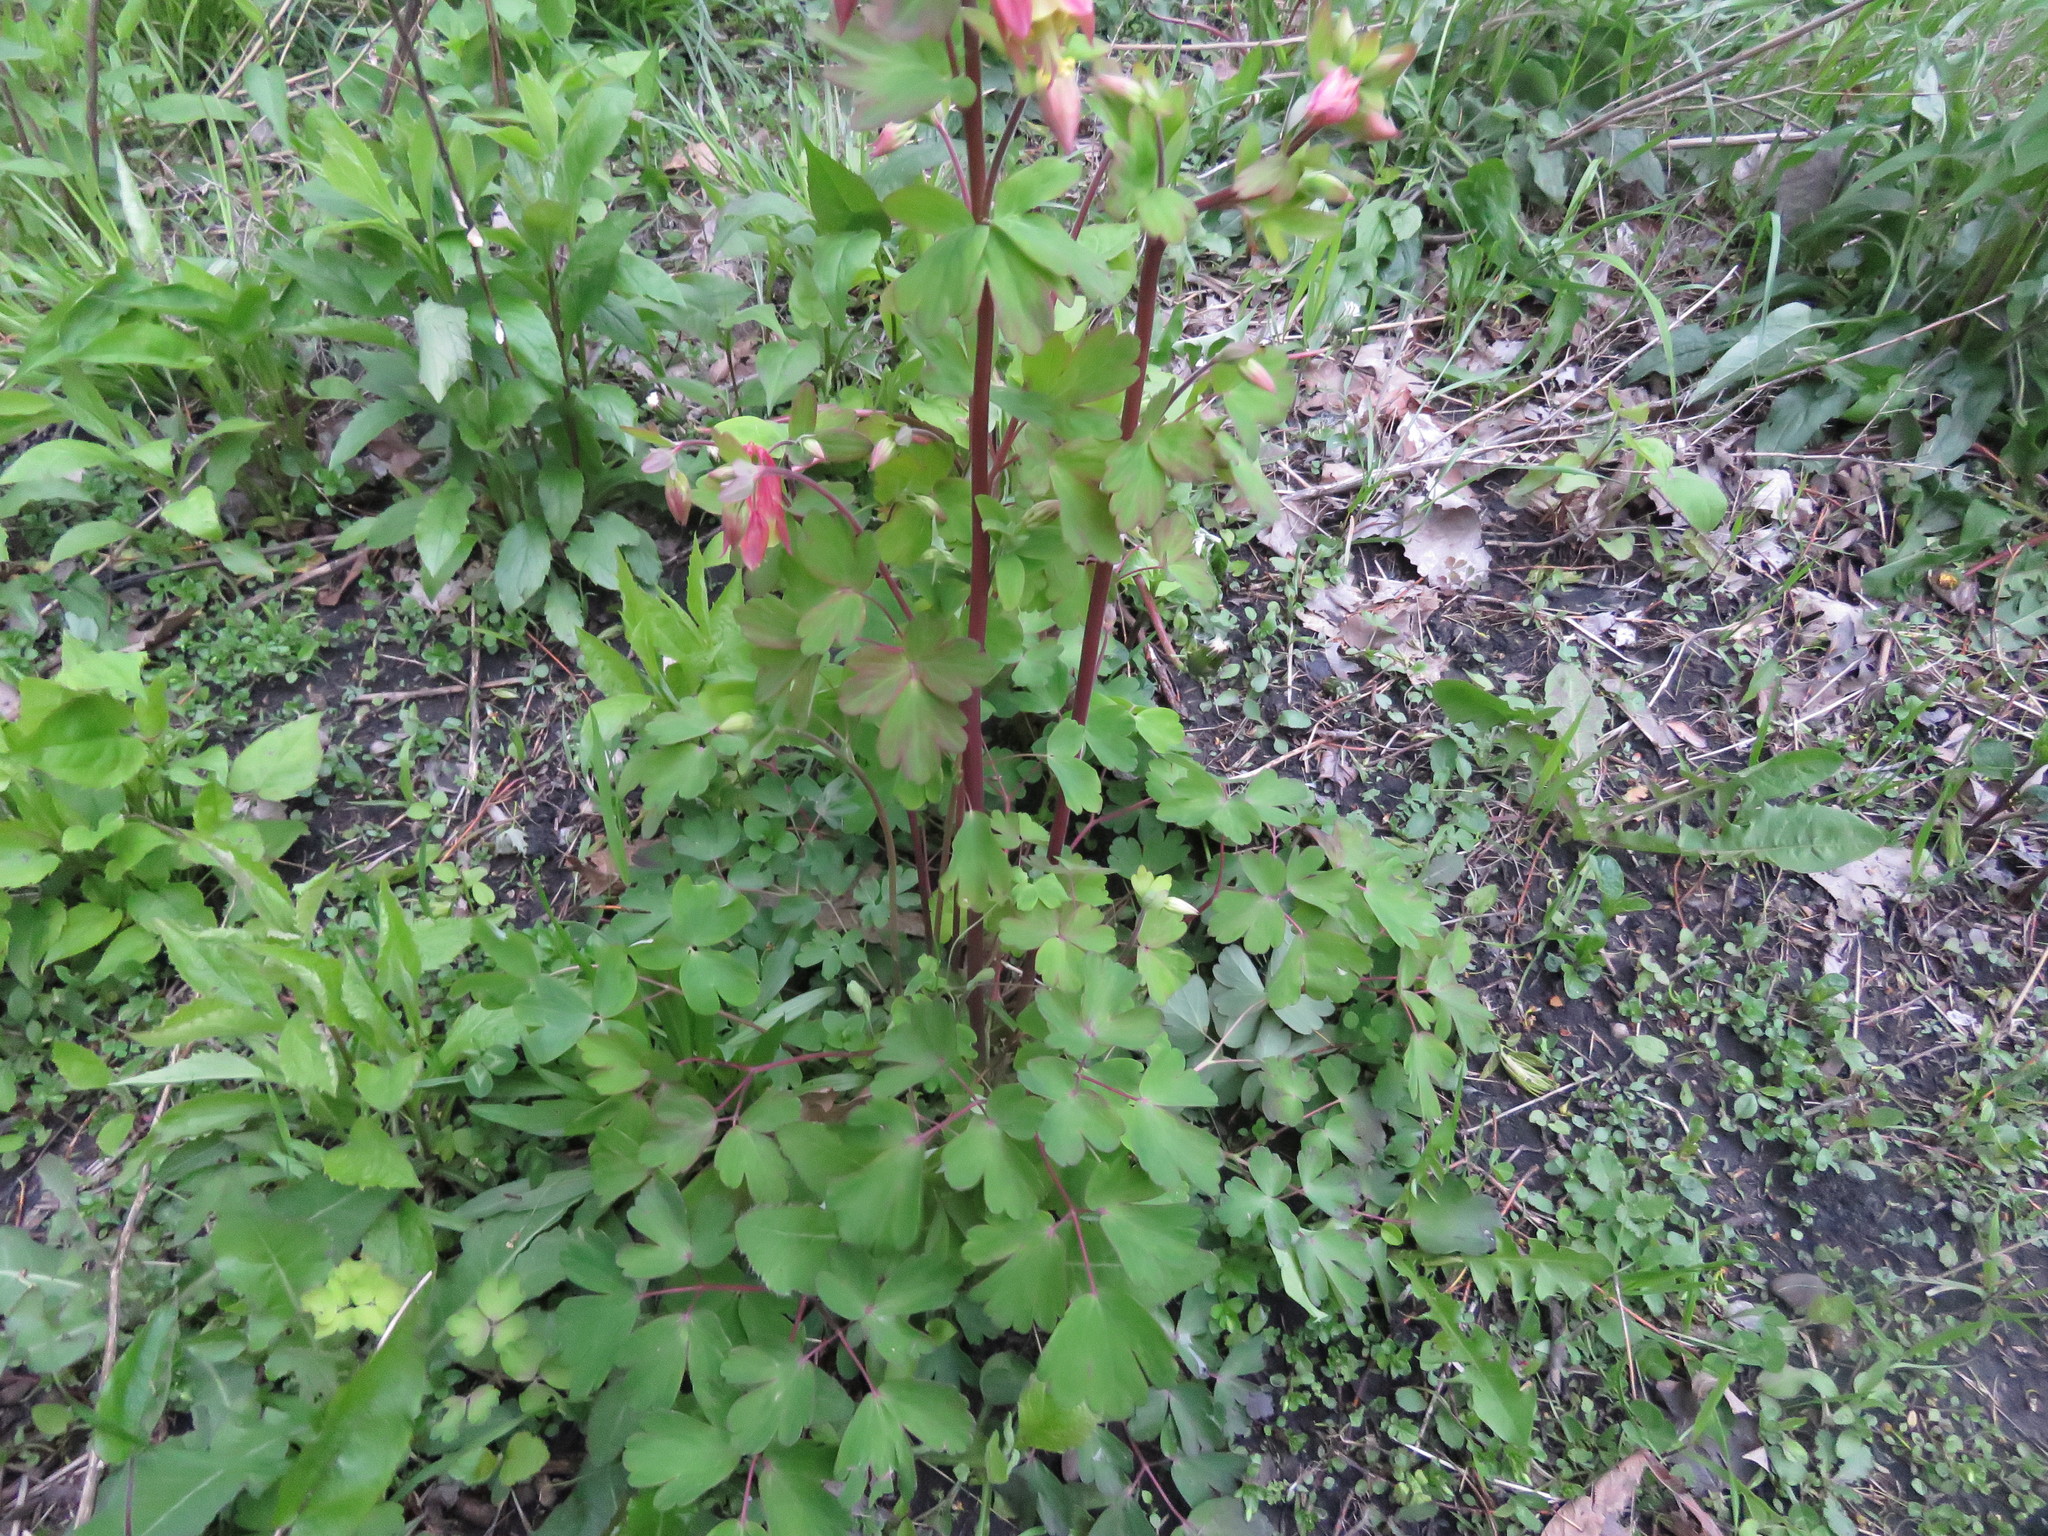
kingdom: Plantae
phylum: Tracheophyta
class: Magnoliopsida
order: Ranunculales
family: Ranunculaceae
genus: Aquilegia
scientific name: Aquilegia canadensis
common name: American columbine
